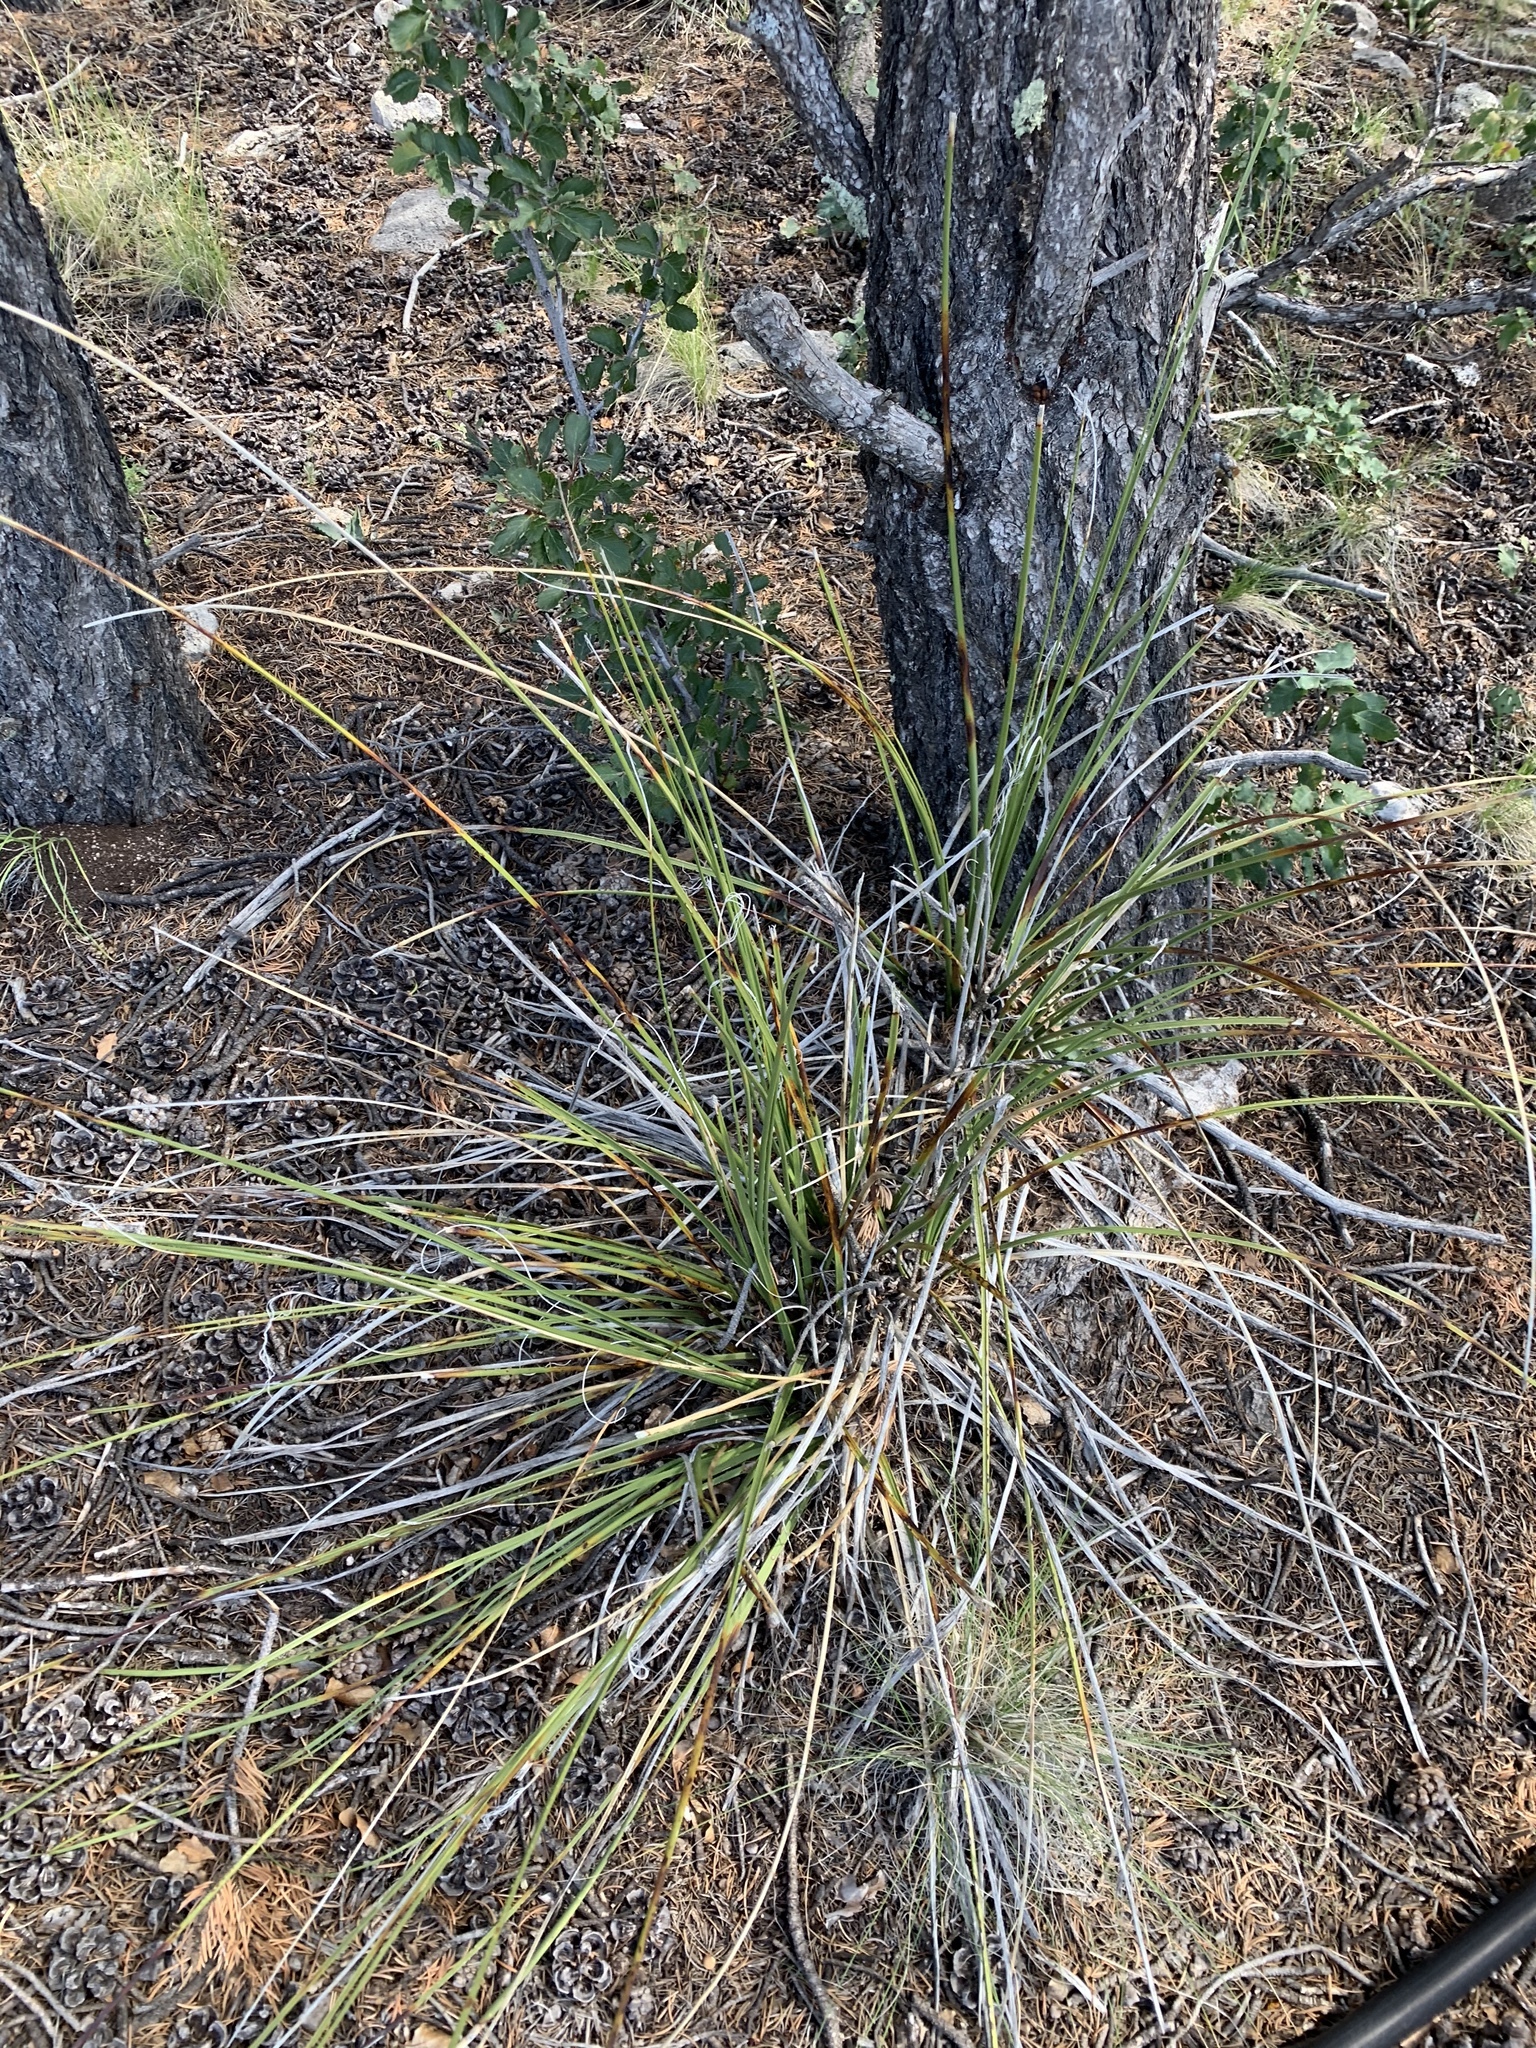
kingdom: Plantae
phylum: Tracheophyta
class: Liliopsida
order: Asparagales
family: Asparagaceae
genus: Nolina
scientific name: Nolina texana
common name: Texas sacahuiste
